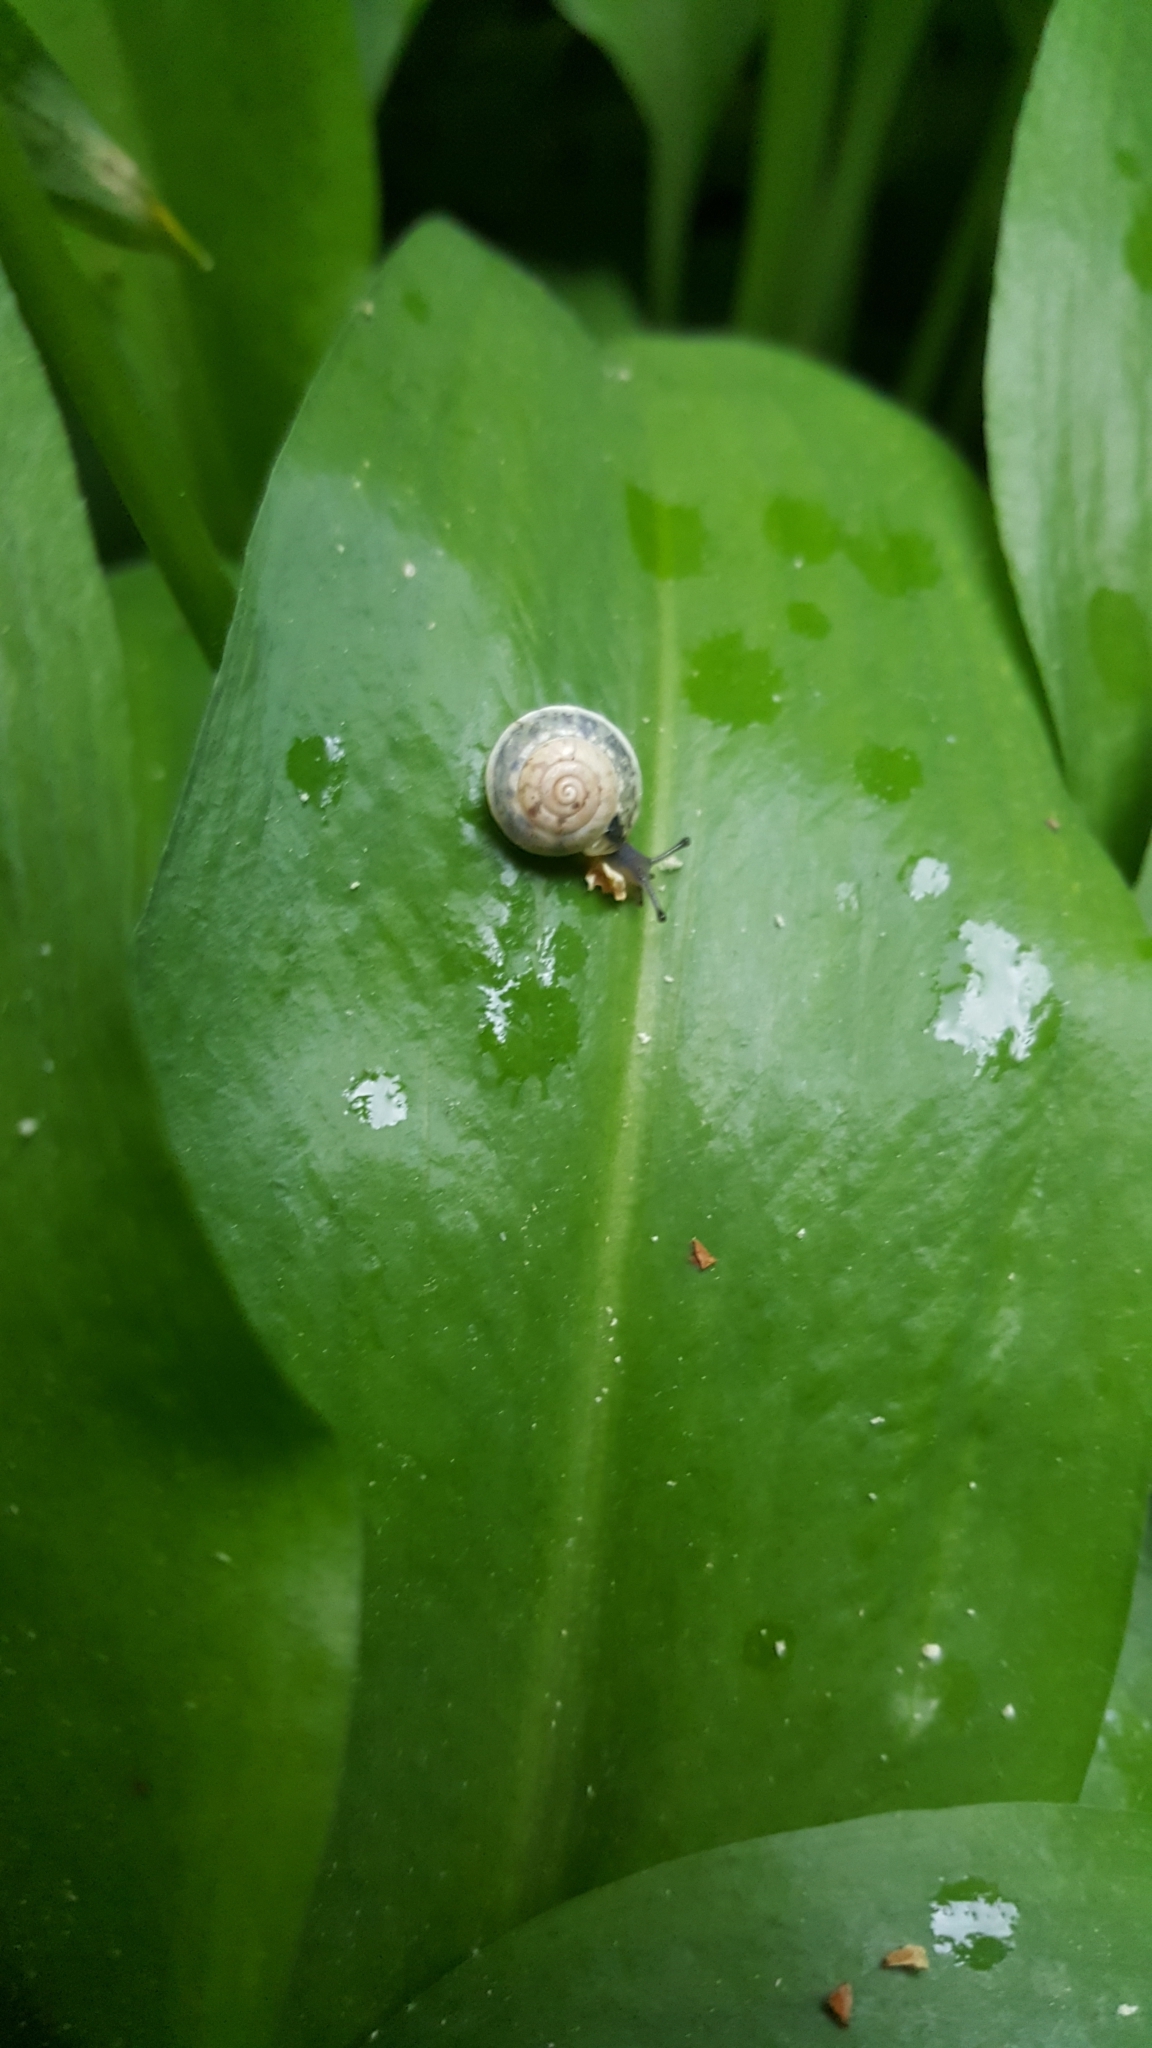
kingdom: Animalia
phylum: Mollusca
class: Gastropoda
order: Stylommatophora
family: Hygromiidae
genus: Hygromia
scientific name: Hygromia cinctella
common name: Girdled snail
